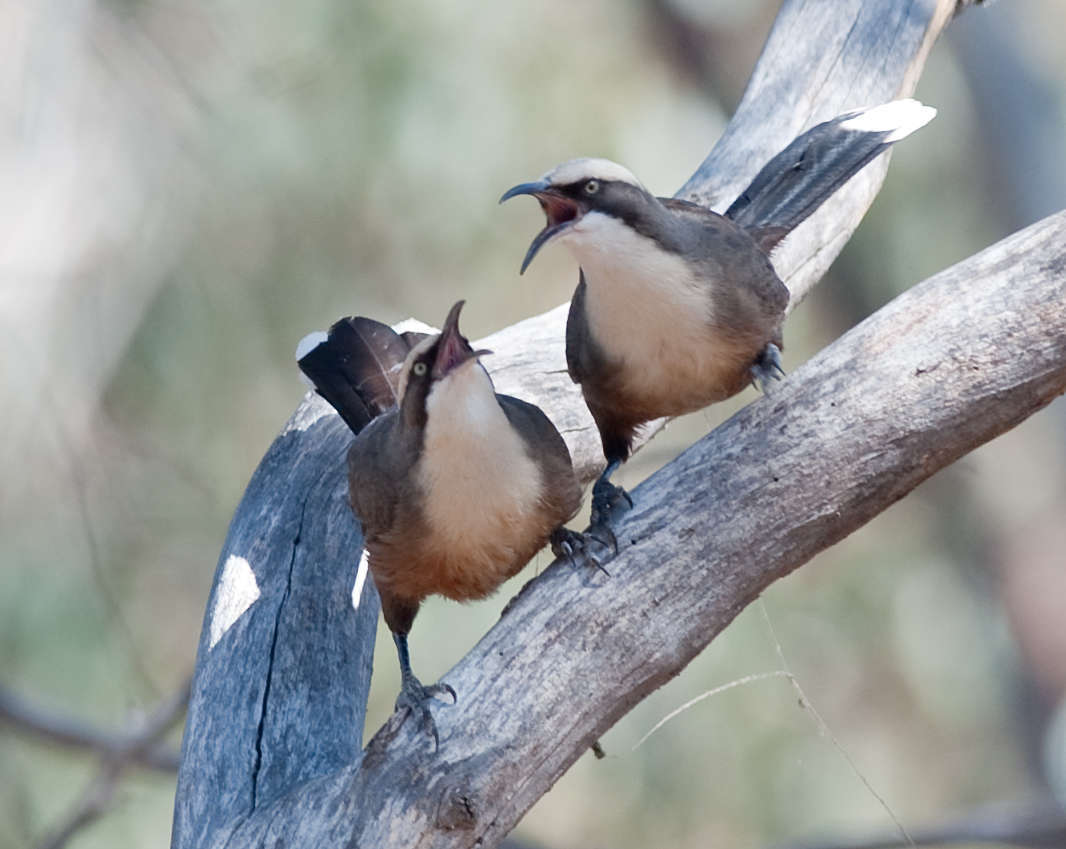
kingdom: Animalia
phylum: Chordata
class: Aves
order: Passeriformes
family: Pomatostomidae
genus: Pomatostomus
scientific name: Pomatostomus temporalis
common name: Grey-crowned babbler
